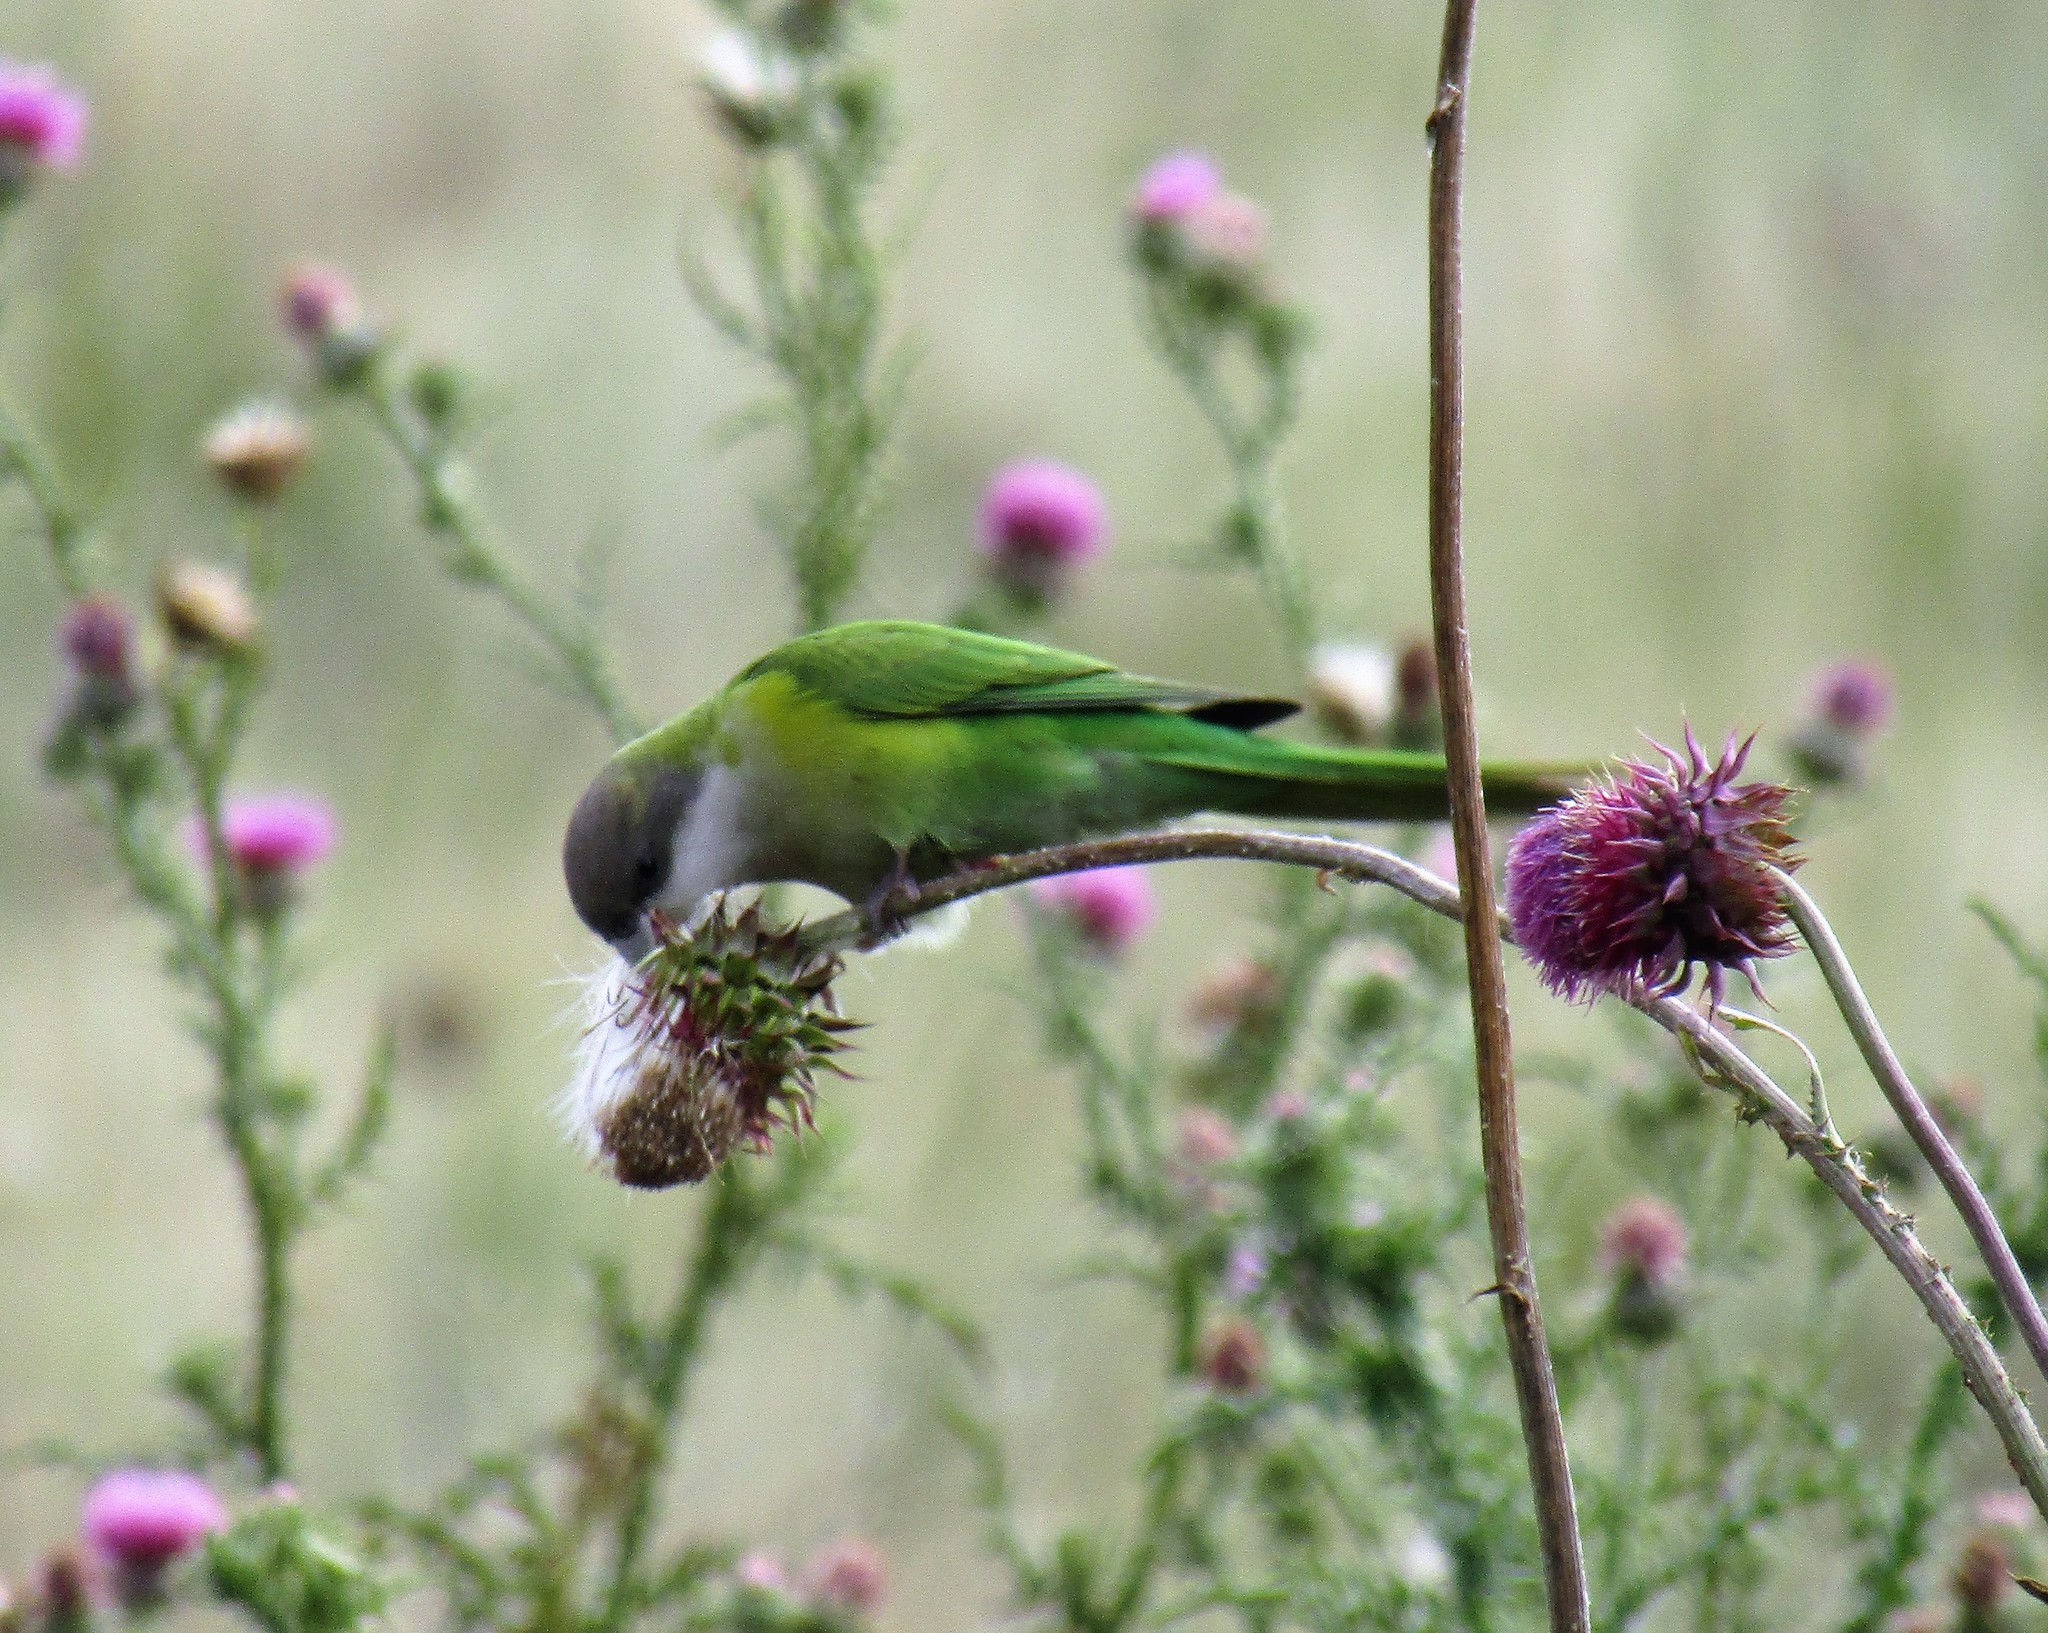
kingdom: Animalia
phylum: Chordata
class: Aves
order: Psittaciformes
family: Psittacidae
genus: Psilopsiagon
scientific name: Psilopsiagon aymara
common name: Grey-hooded parakeet
